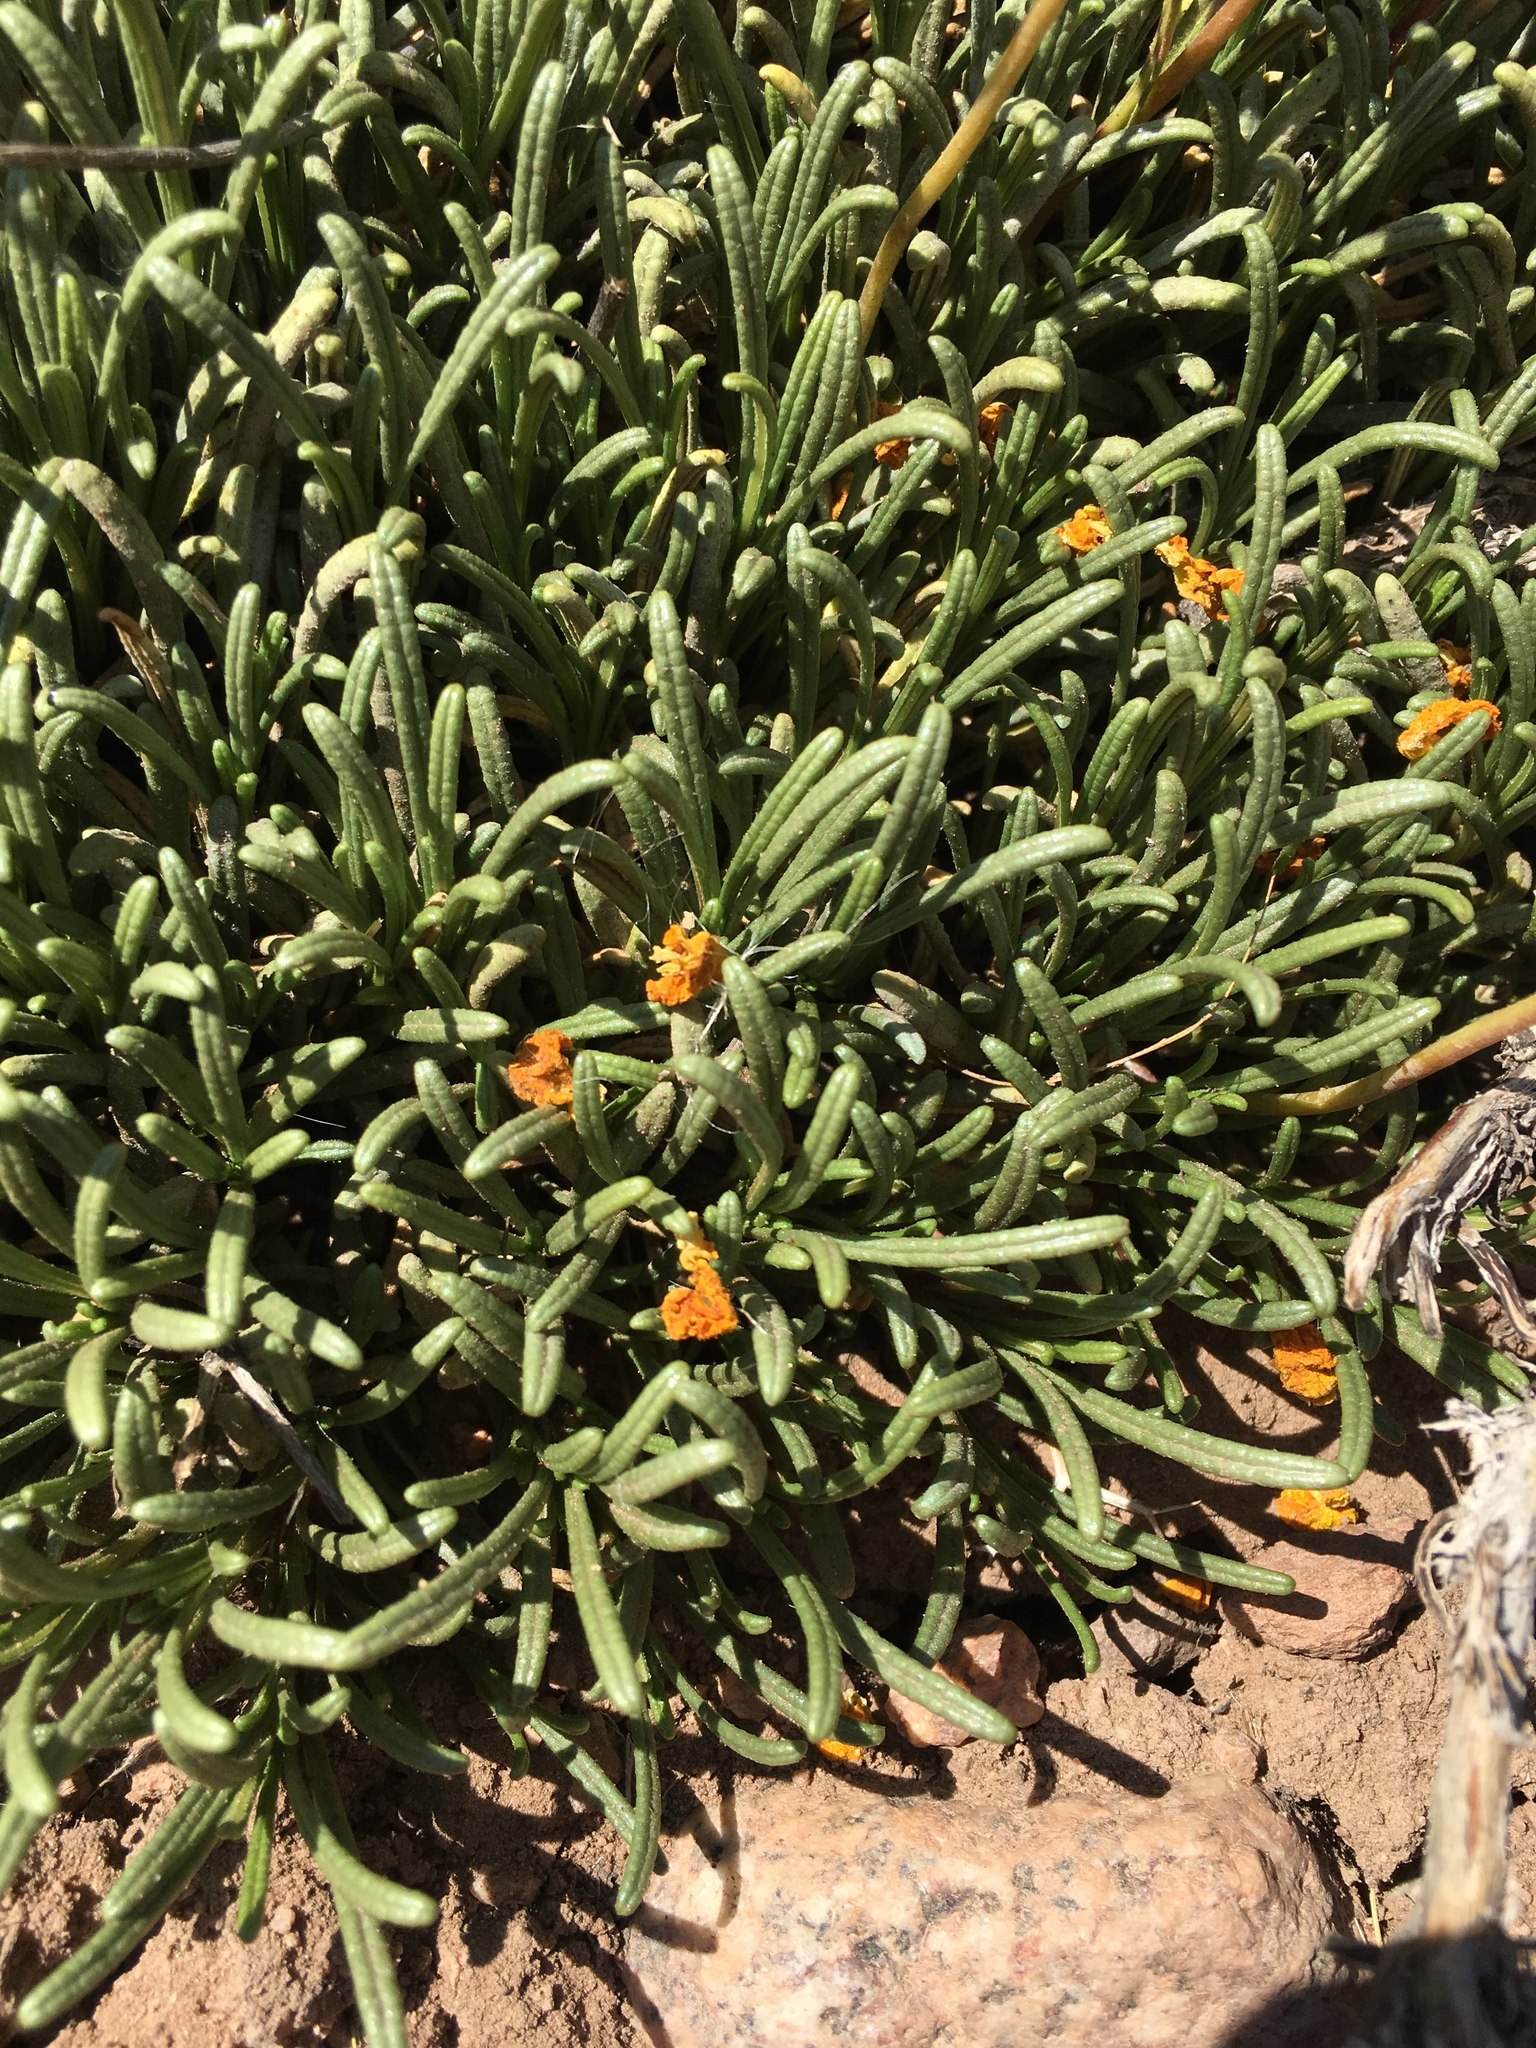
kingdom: Plantae
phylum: Tracheophyta
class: Magnoliopsida
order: Lamiales
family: Calceolariaceae
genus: Calceolaria
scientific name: Calceolaria pinifolia
